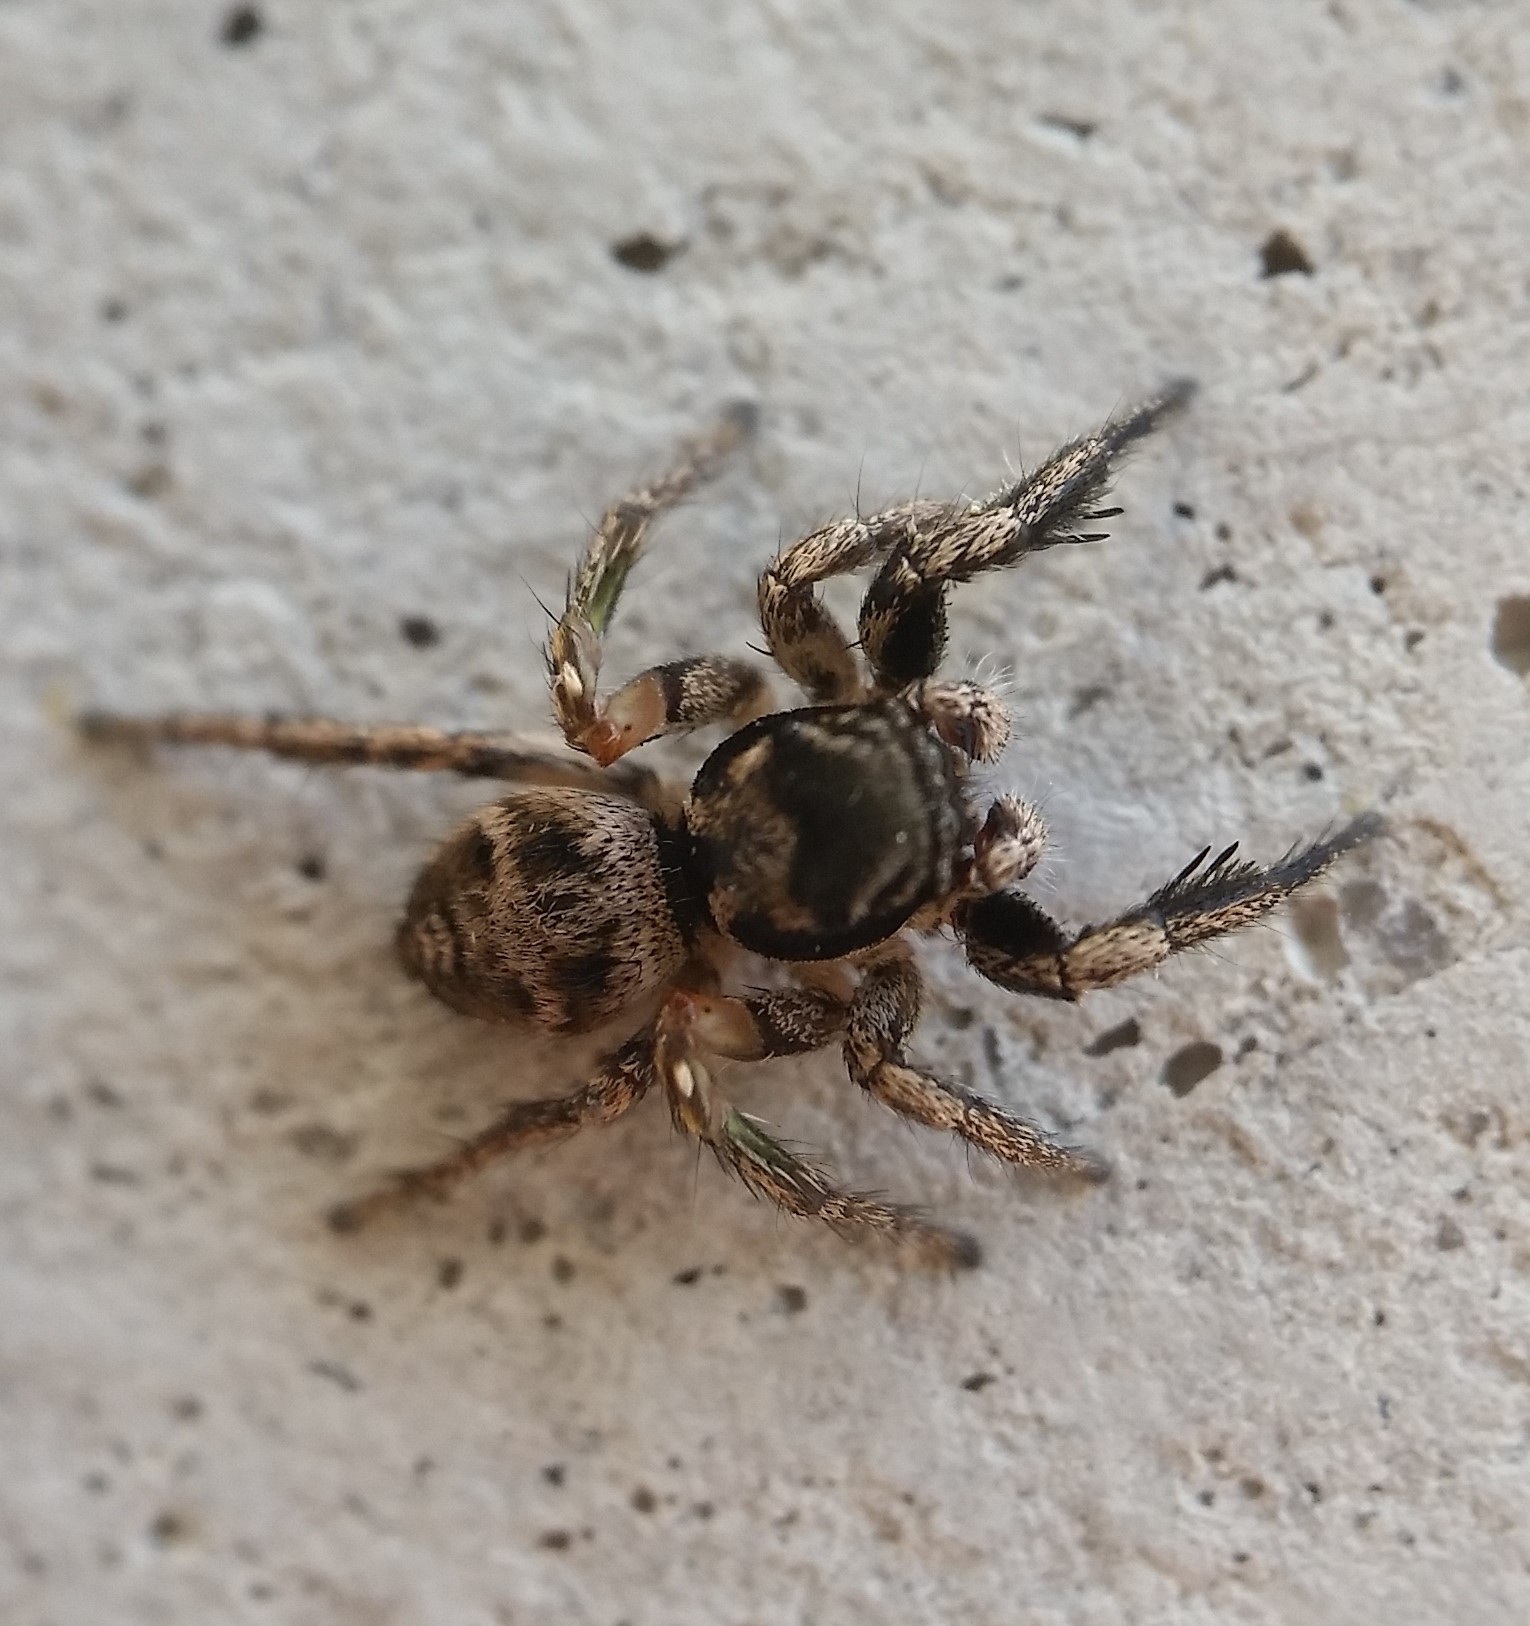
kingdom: Animalia
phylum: Arthropoda
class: Arachnida
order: Araneae
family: Salticidae
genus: Habronattus
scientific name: Habronattus coecatus
